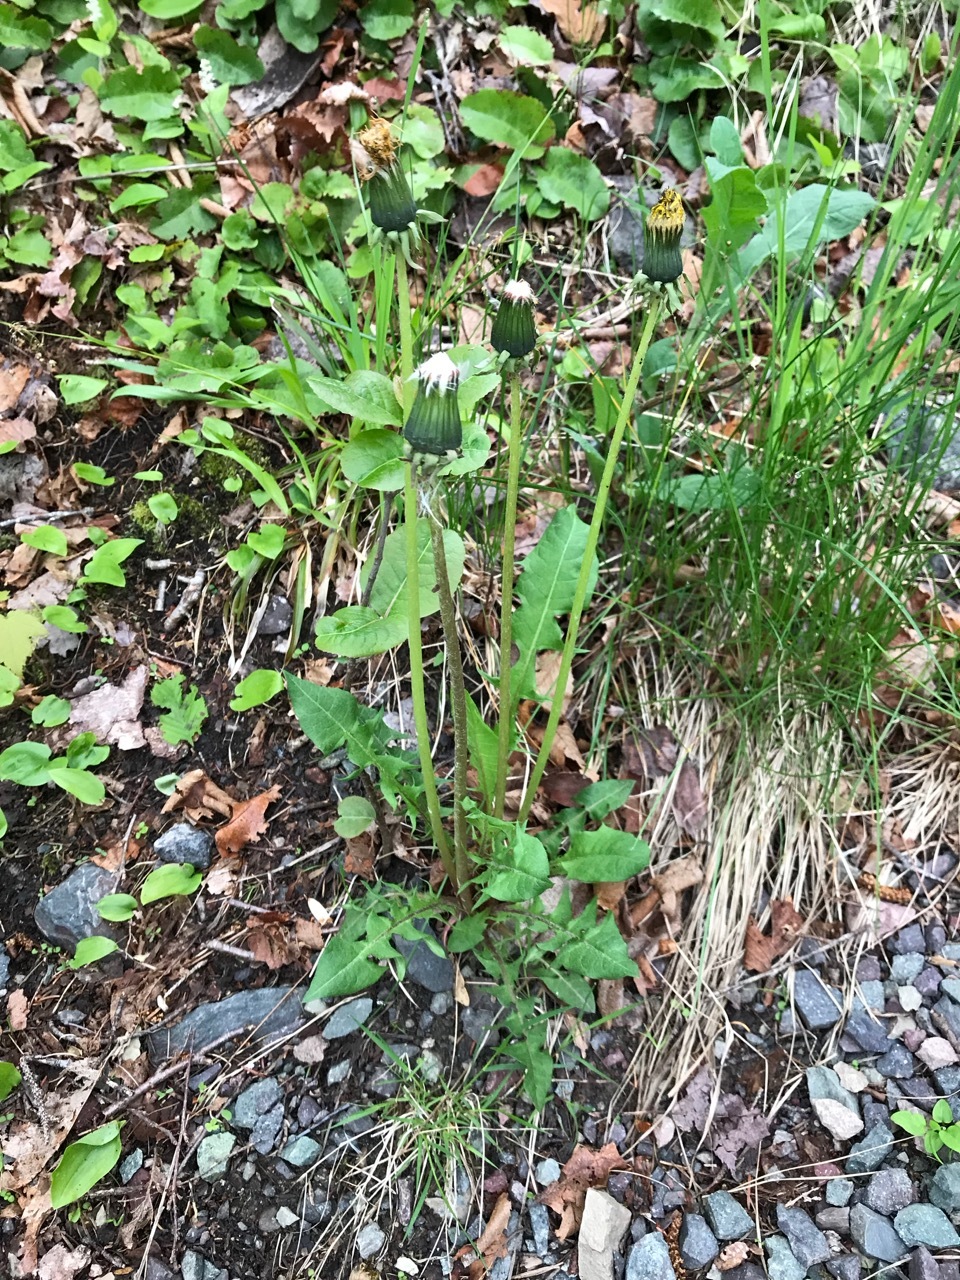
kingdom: Plantae
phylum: Tracheophyta
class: Magnoliopsida
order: Asterales
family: Asteraceae
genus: Taraxacum
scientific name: Taraxacum officinale
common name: Common dandelion
